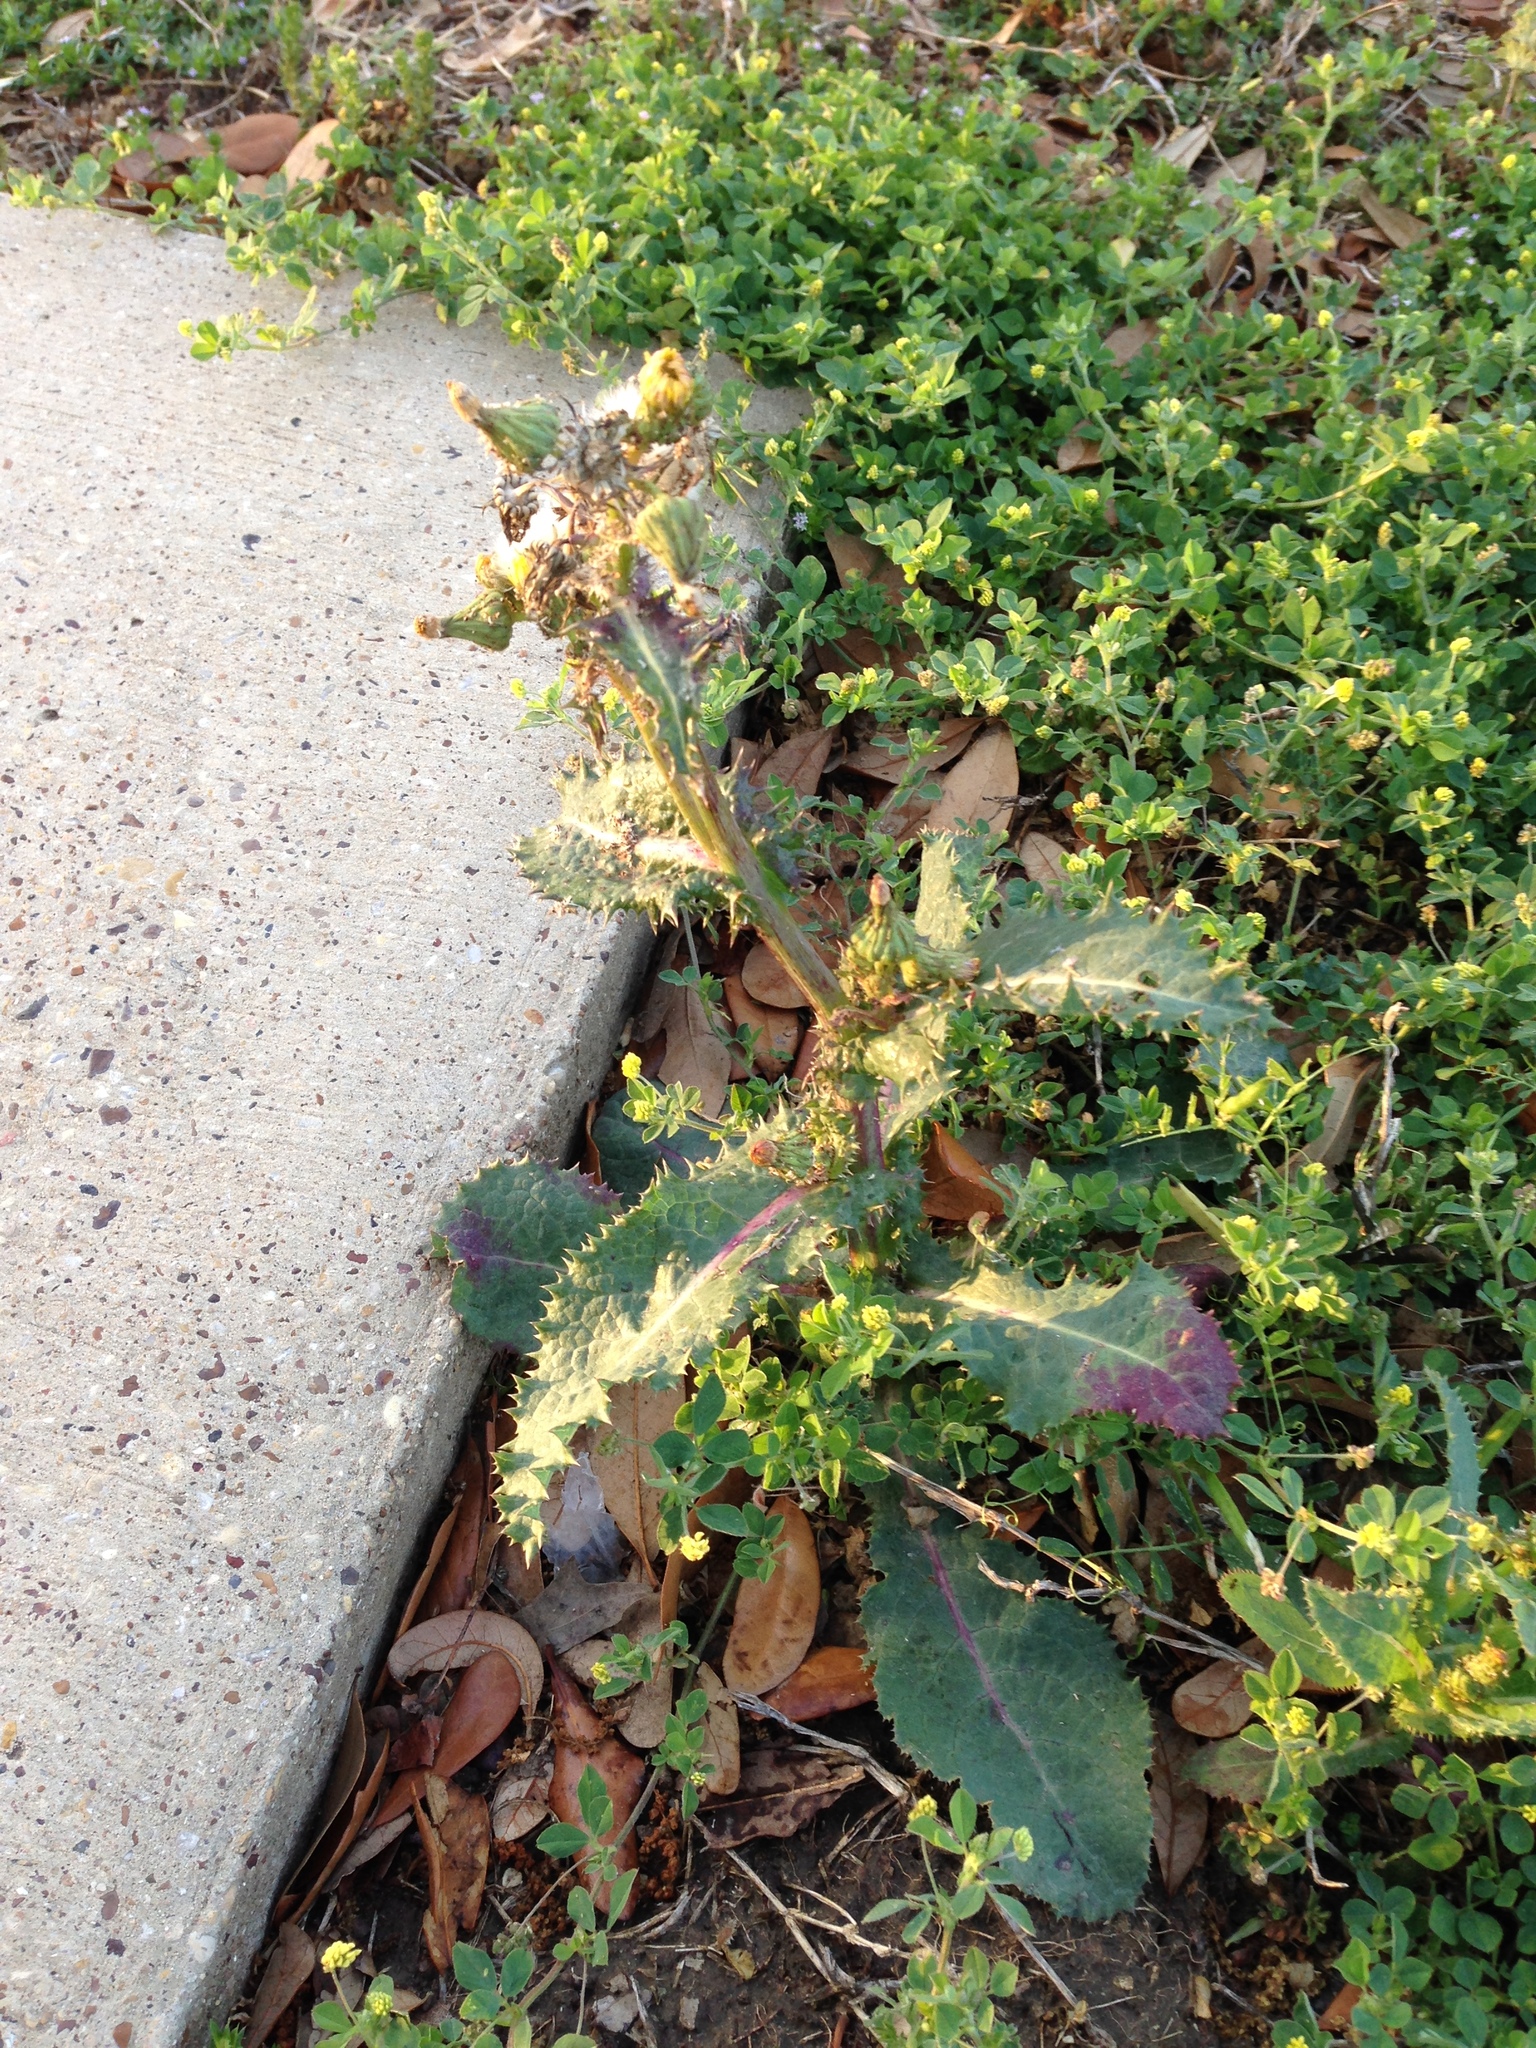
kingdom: Plantae
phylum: Tracheophyta
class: Magnoliopsida
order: Asterales
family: Asteraceae
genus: Sonchus
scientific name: Sonchus asper
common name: Prickly sow-thistle
